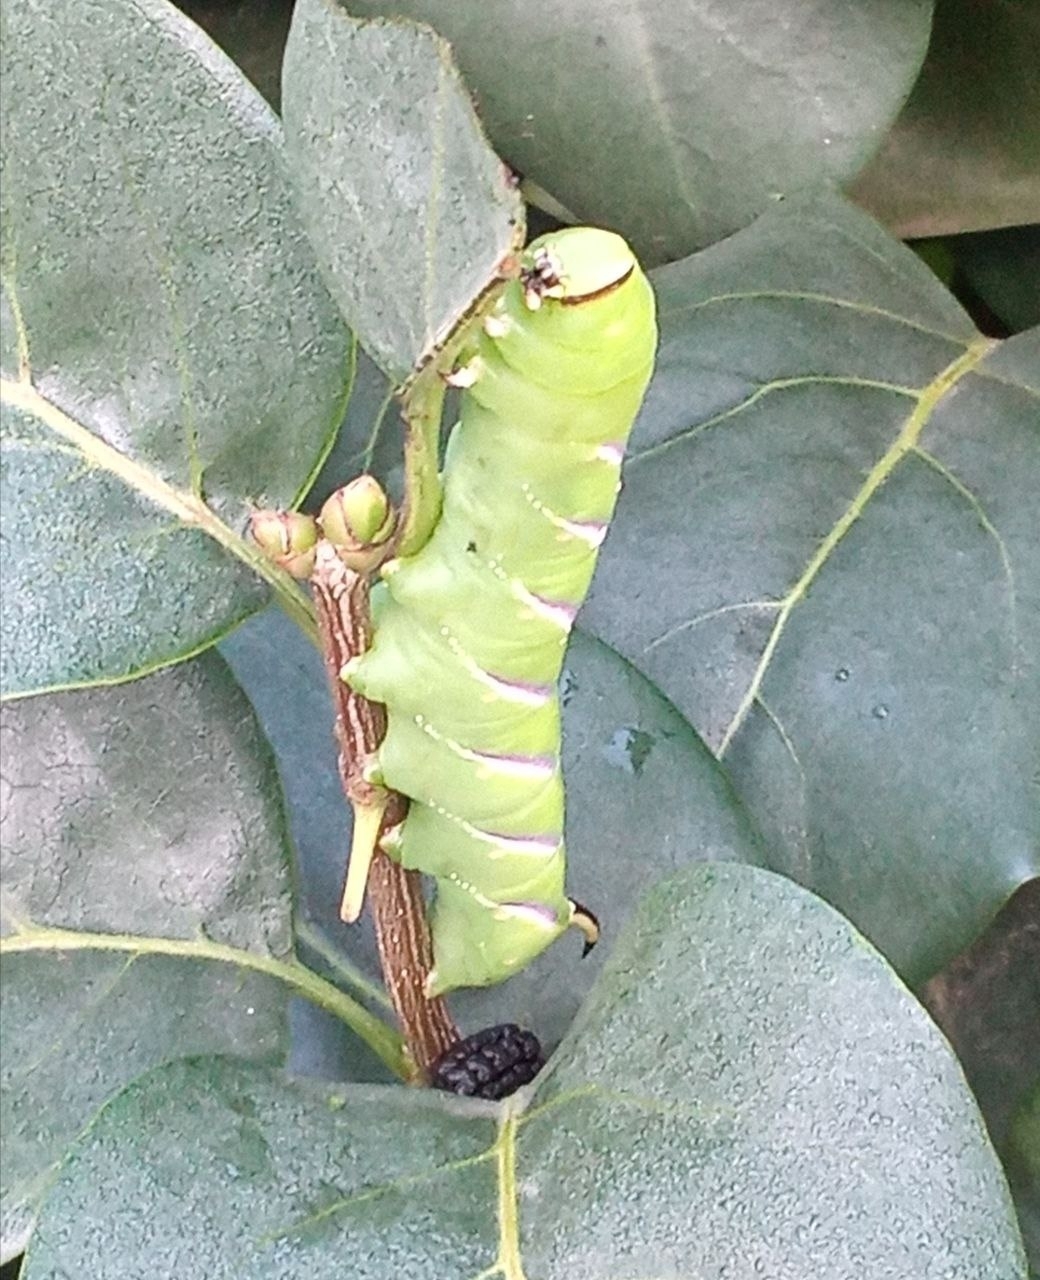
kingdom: Animalia
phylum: Arthropoda
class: Insecta
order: Lepidoptera
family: Sphingidae
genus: Sphinx
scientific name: Sphinx ligustri
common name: Privet hawk-moth
